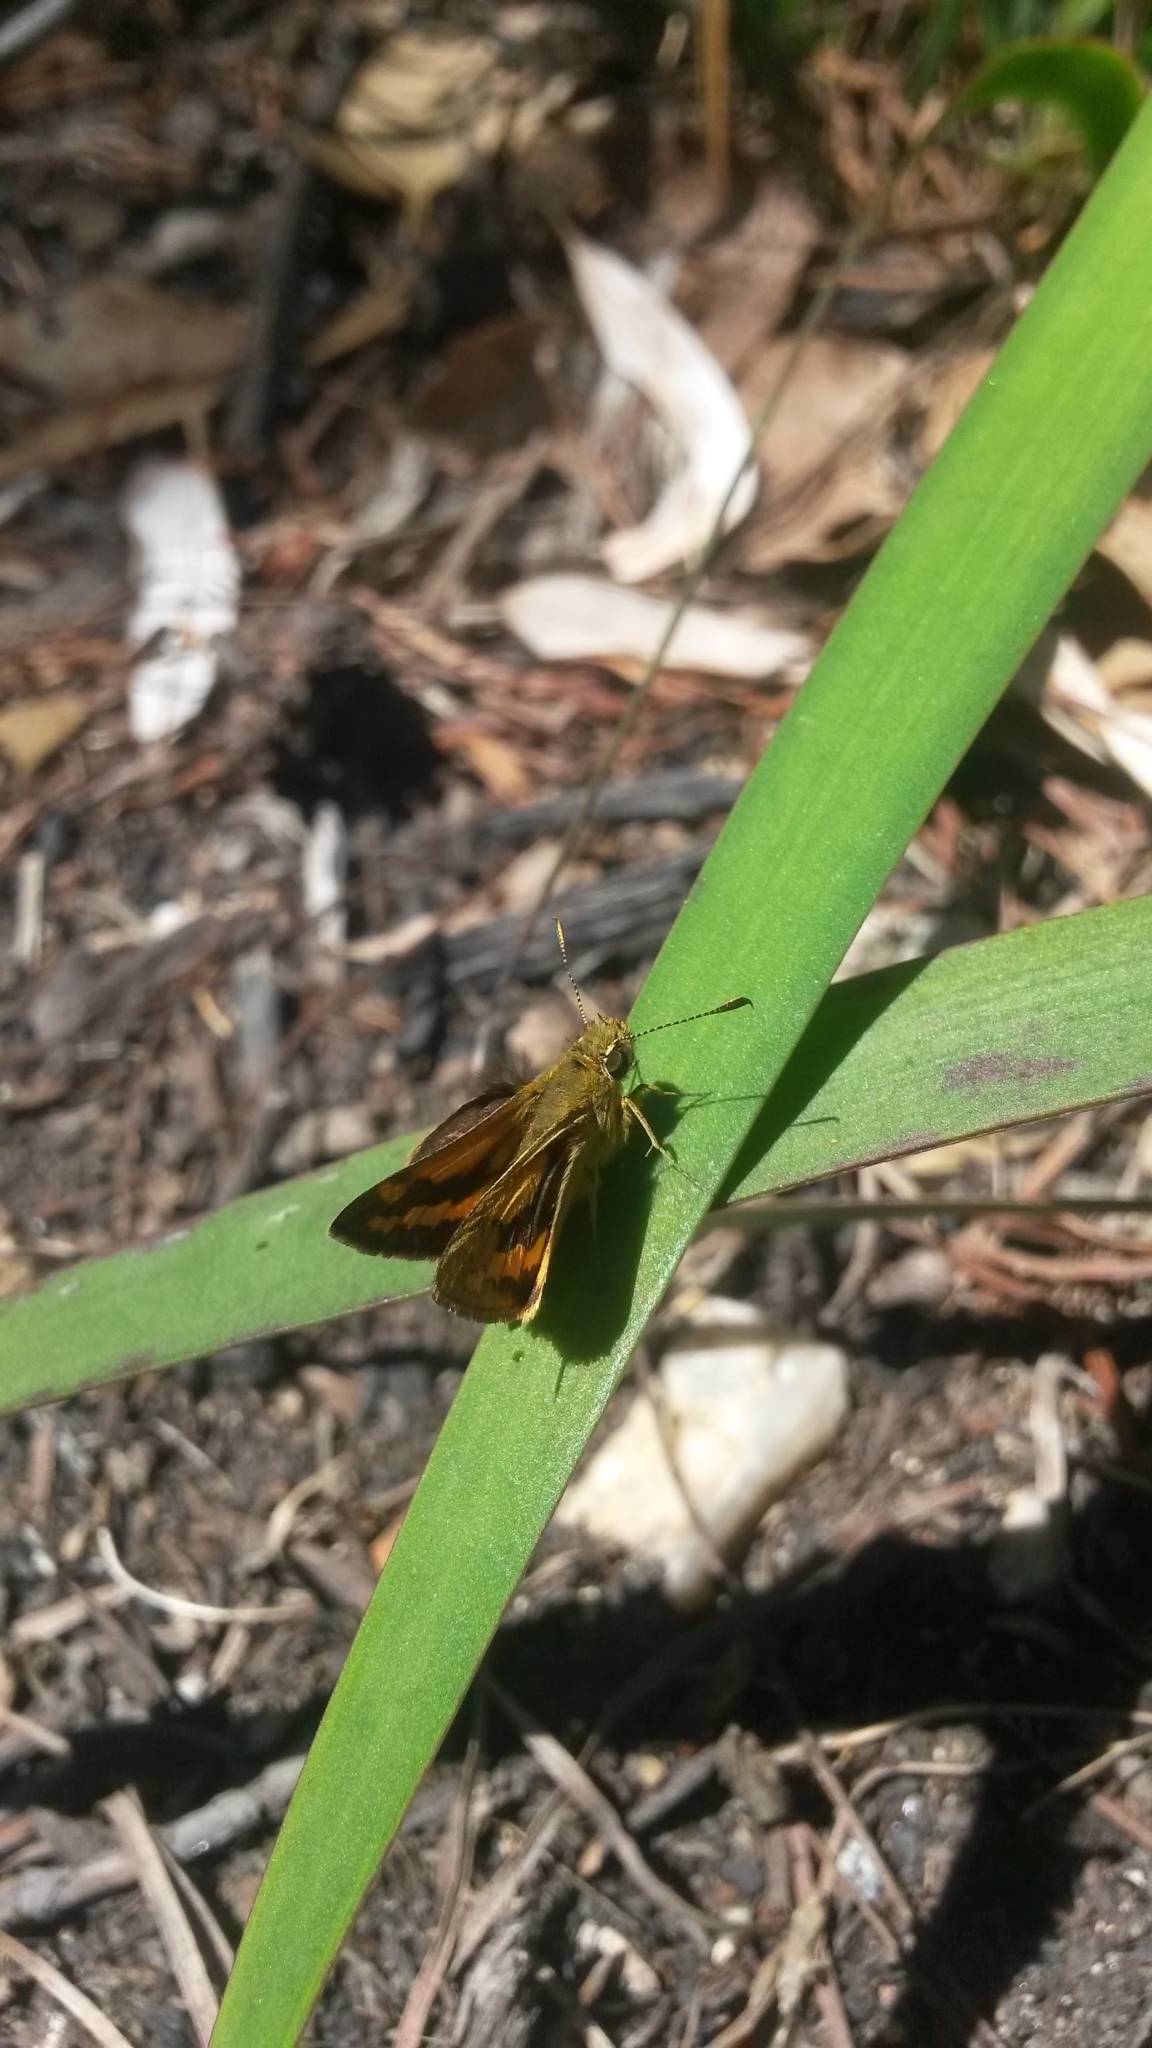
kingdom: Animalia
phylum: Arthropoda
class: Insecta
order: Lepidoptera
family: Hesperiidae
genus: Ocybadistes
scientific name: Ocybadistes walkeri
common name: Yellow-banded dart
